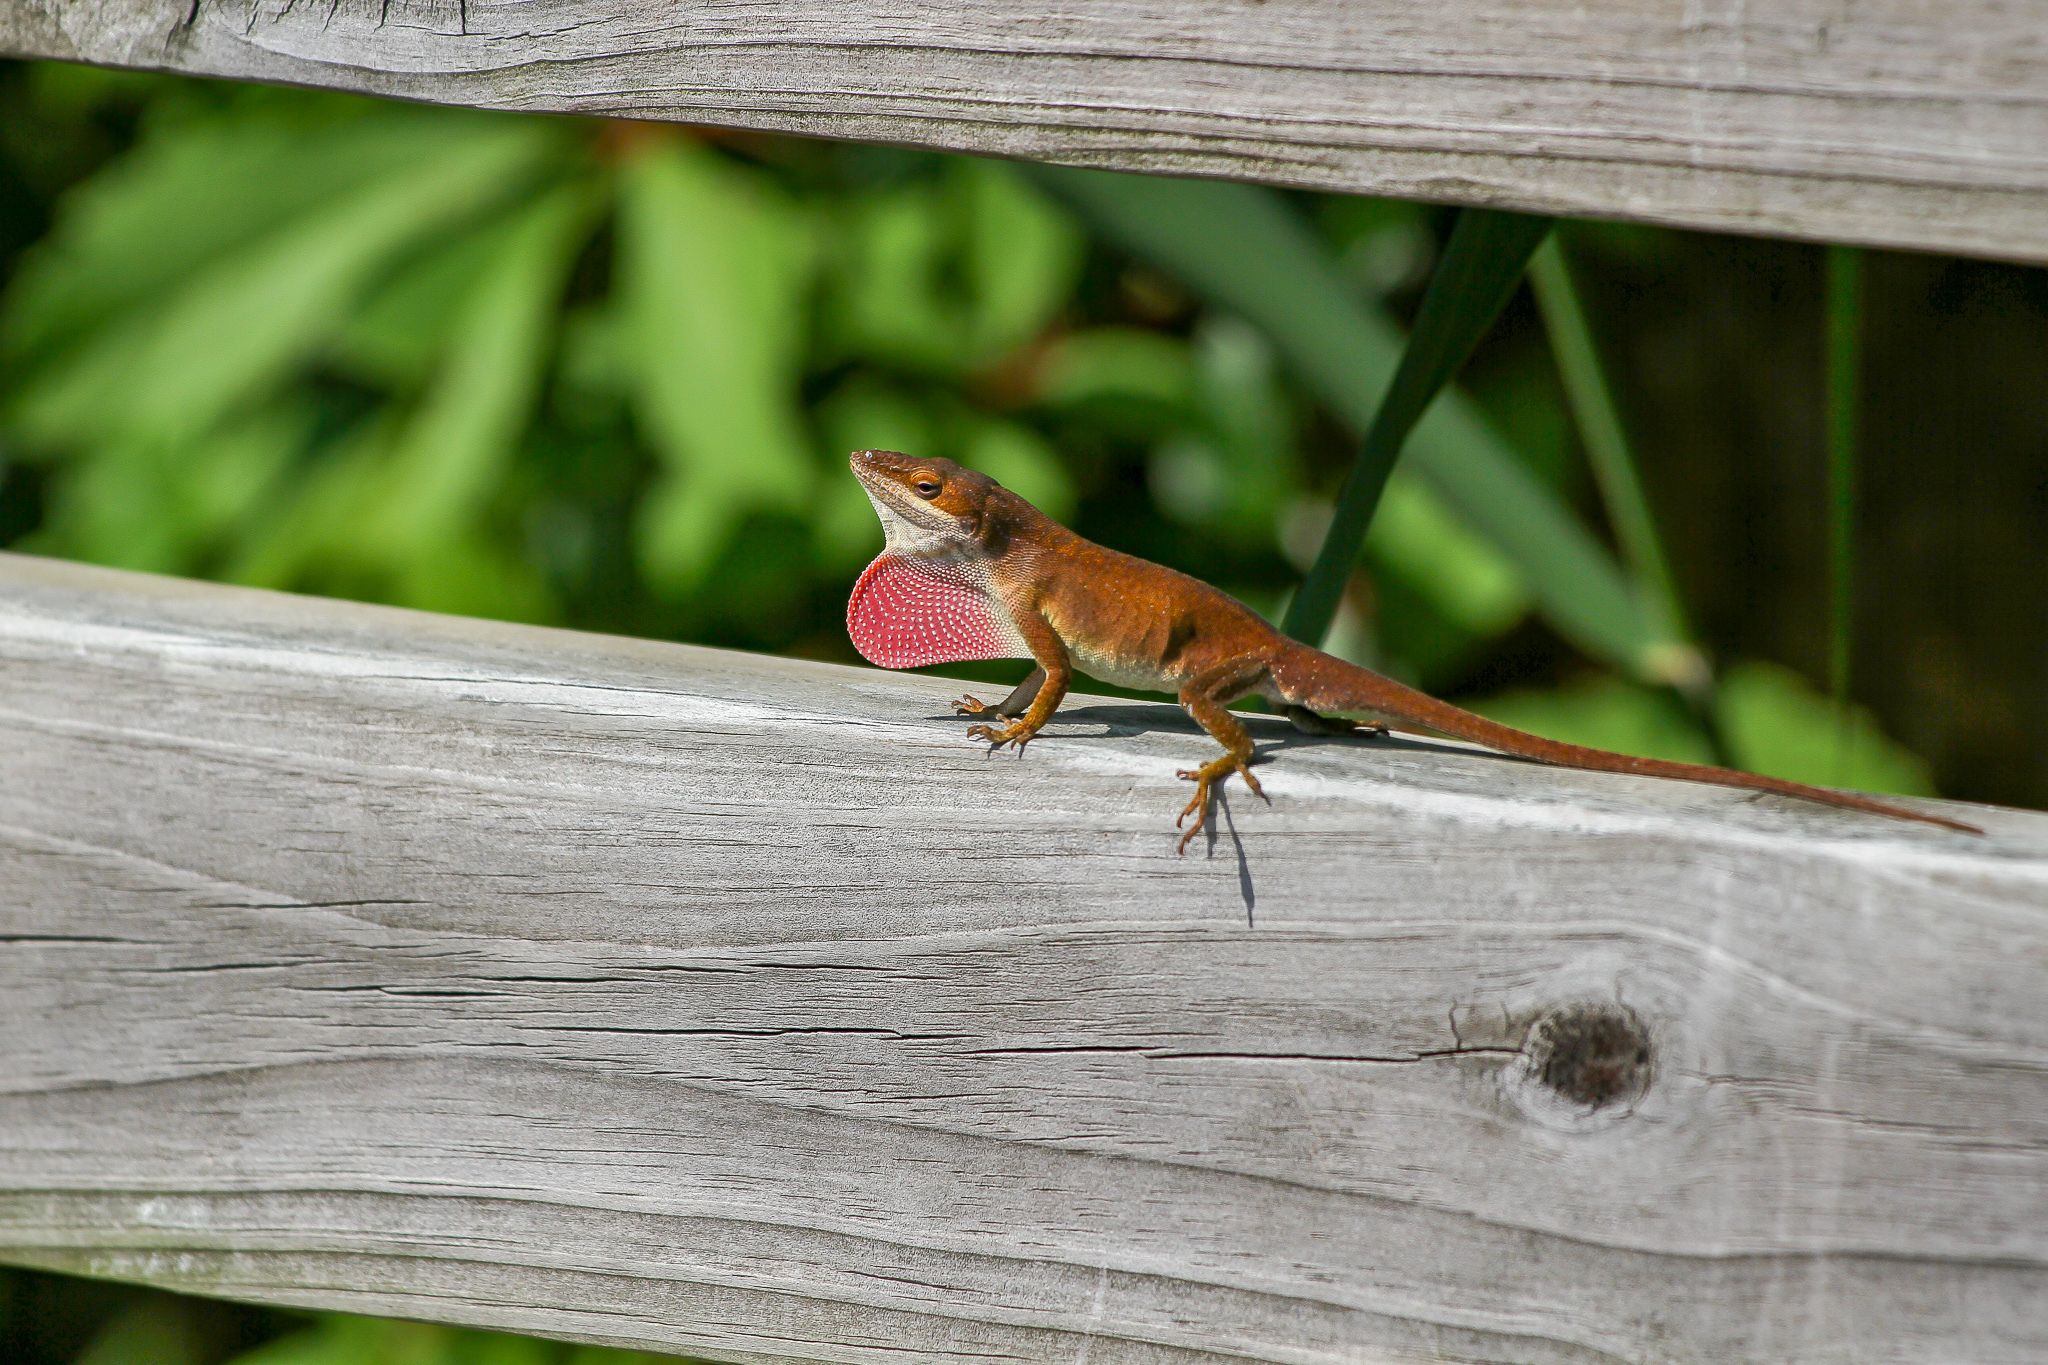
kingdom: Animalia
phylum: Chordata
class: Squamata
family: Dactyloidae
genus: Anolis
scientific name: Anolis carolinensis
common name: Green anole
